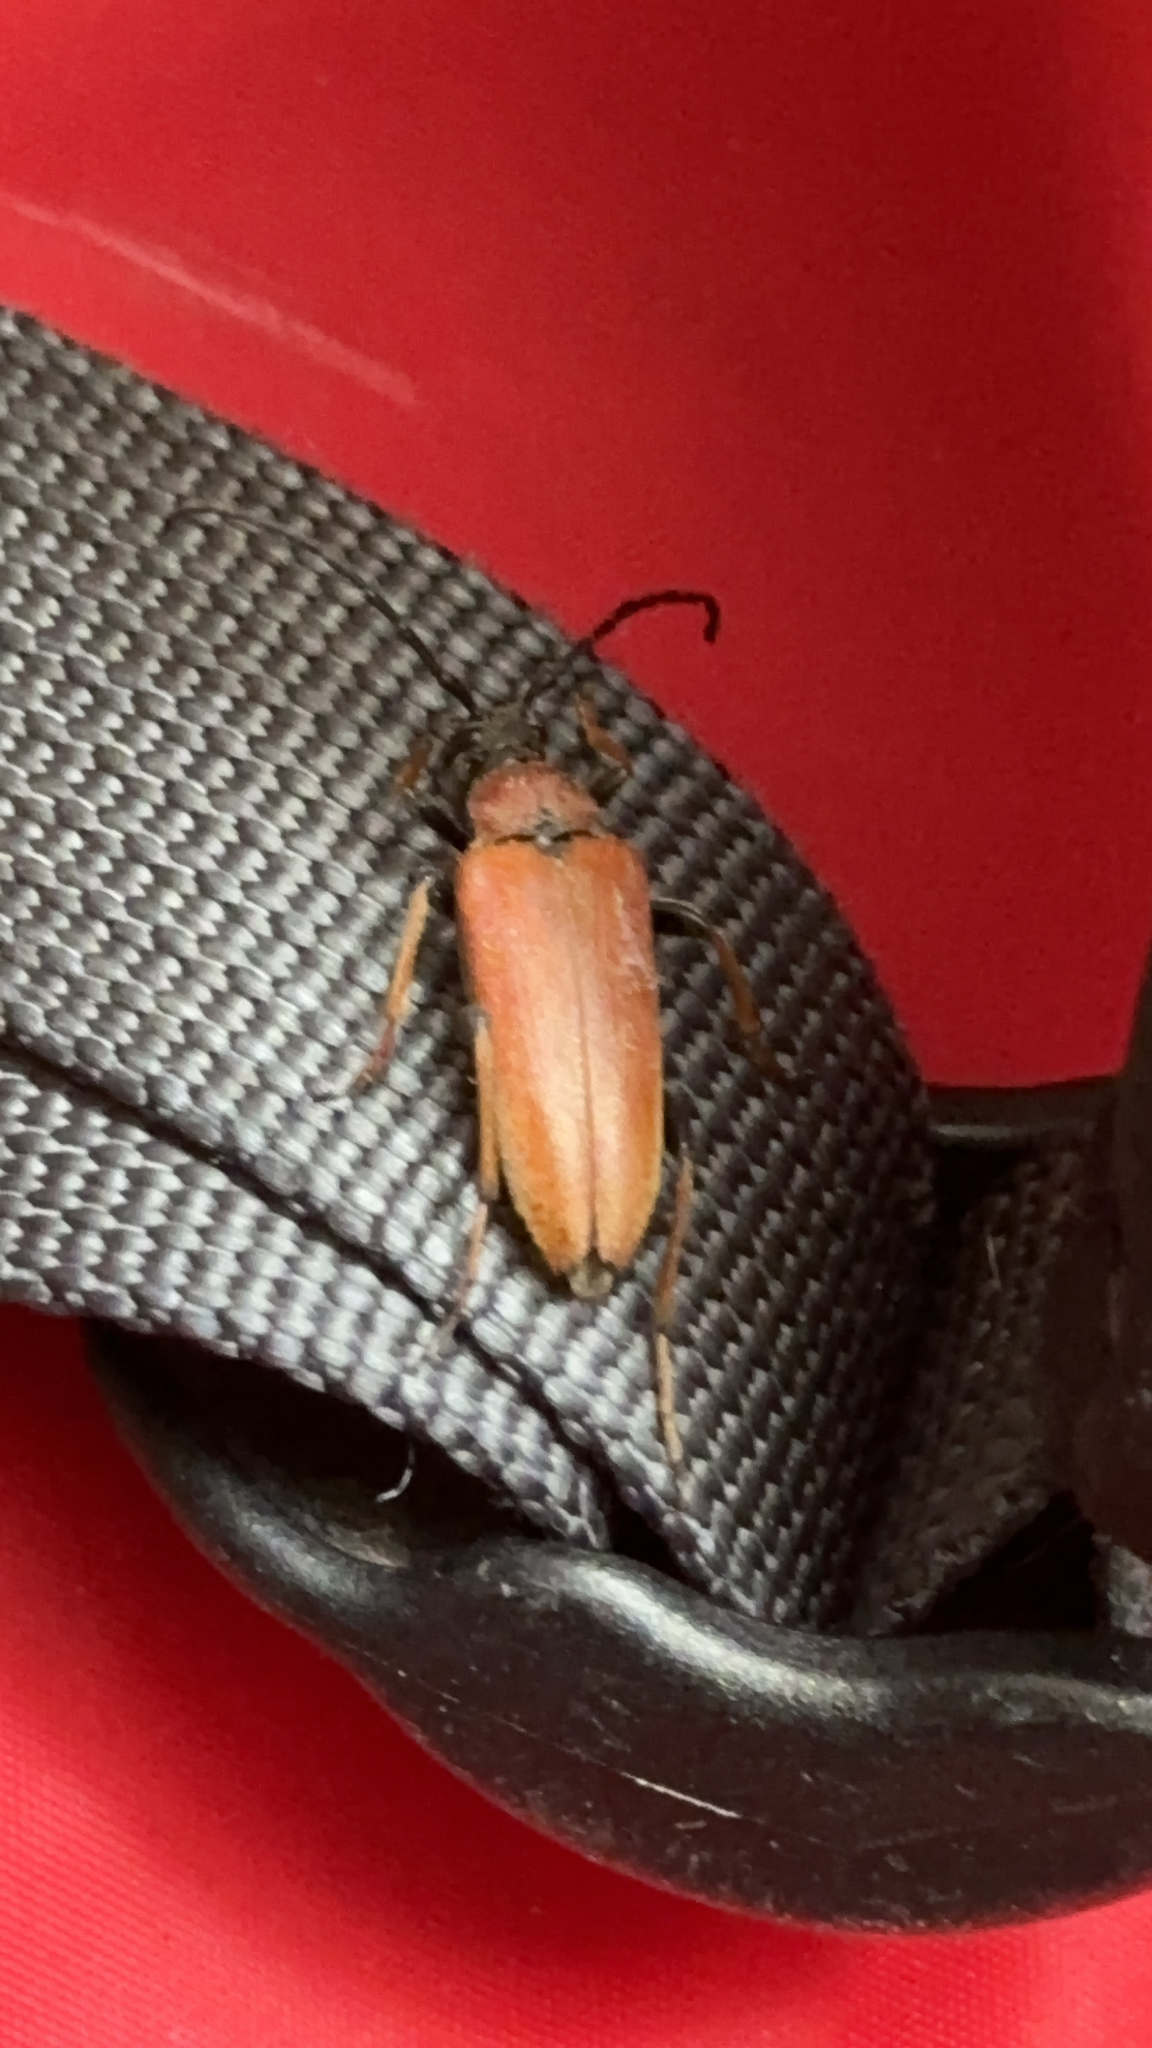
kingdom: Animalia
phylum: Arthropoda
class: Insecta
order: Coleoptera
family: Cerambycidae
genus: Stictoleptura
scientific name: Stictoleptura rubra
